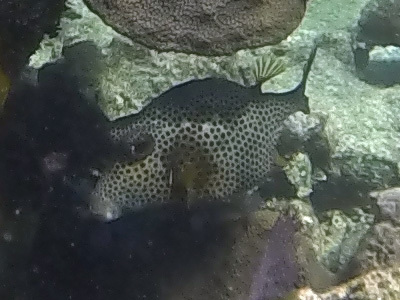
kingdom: Animalia
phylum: Chordata
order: Tetraodontiformes
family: Ostraciidae
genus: Lactophrys
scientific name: Lactophrys bicaudalis
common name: Spotted trunkfish
